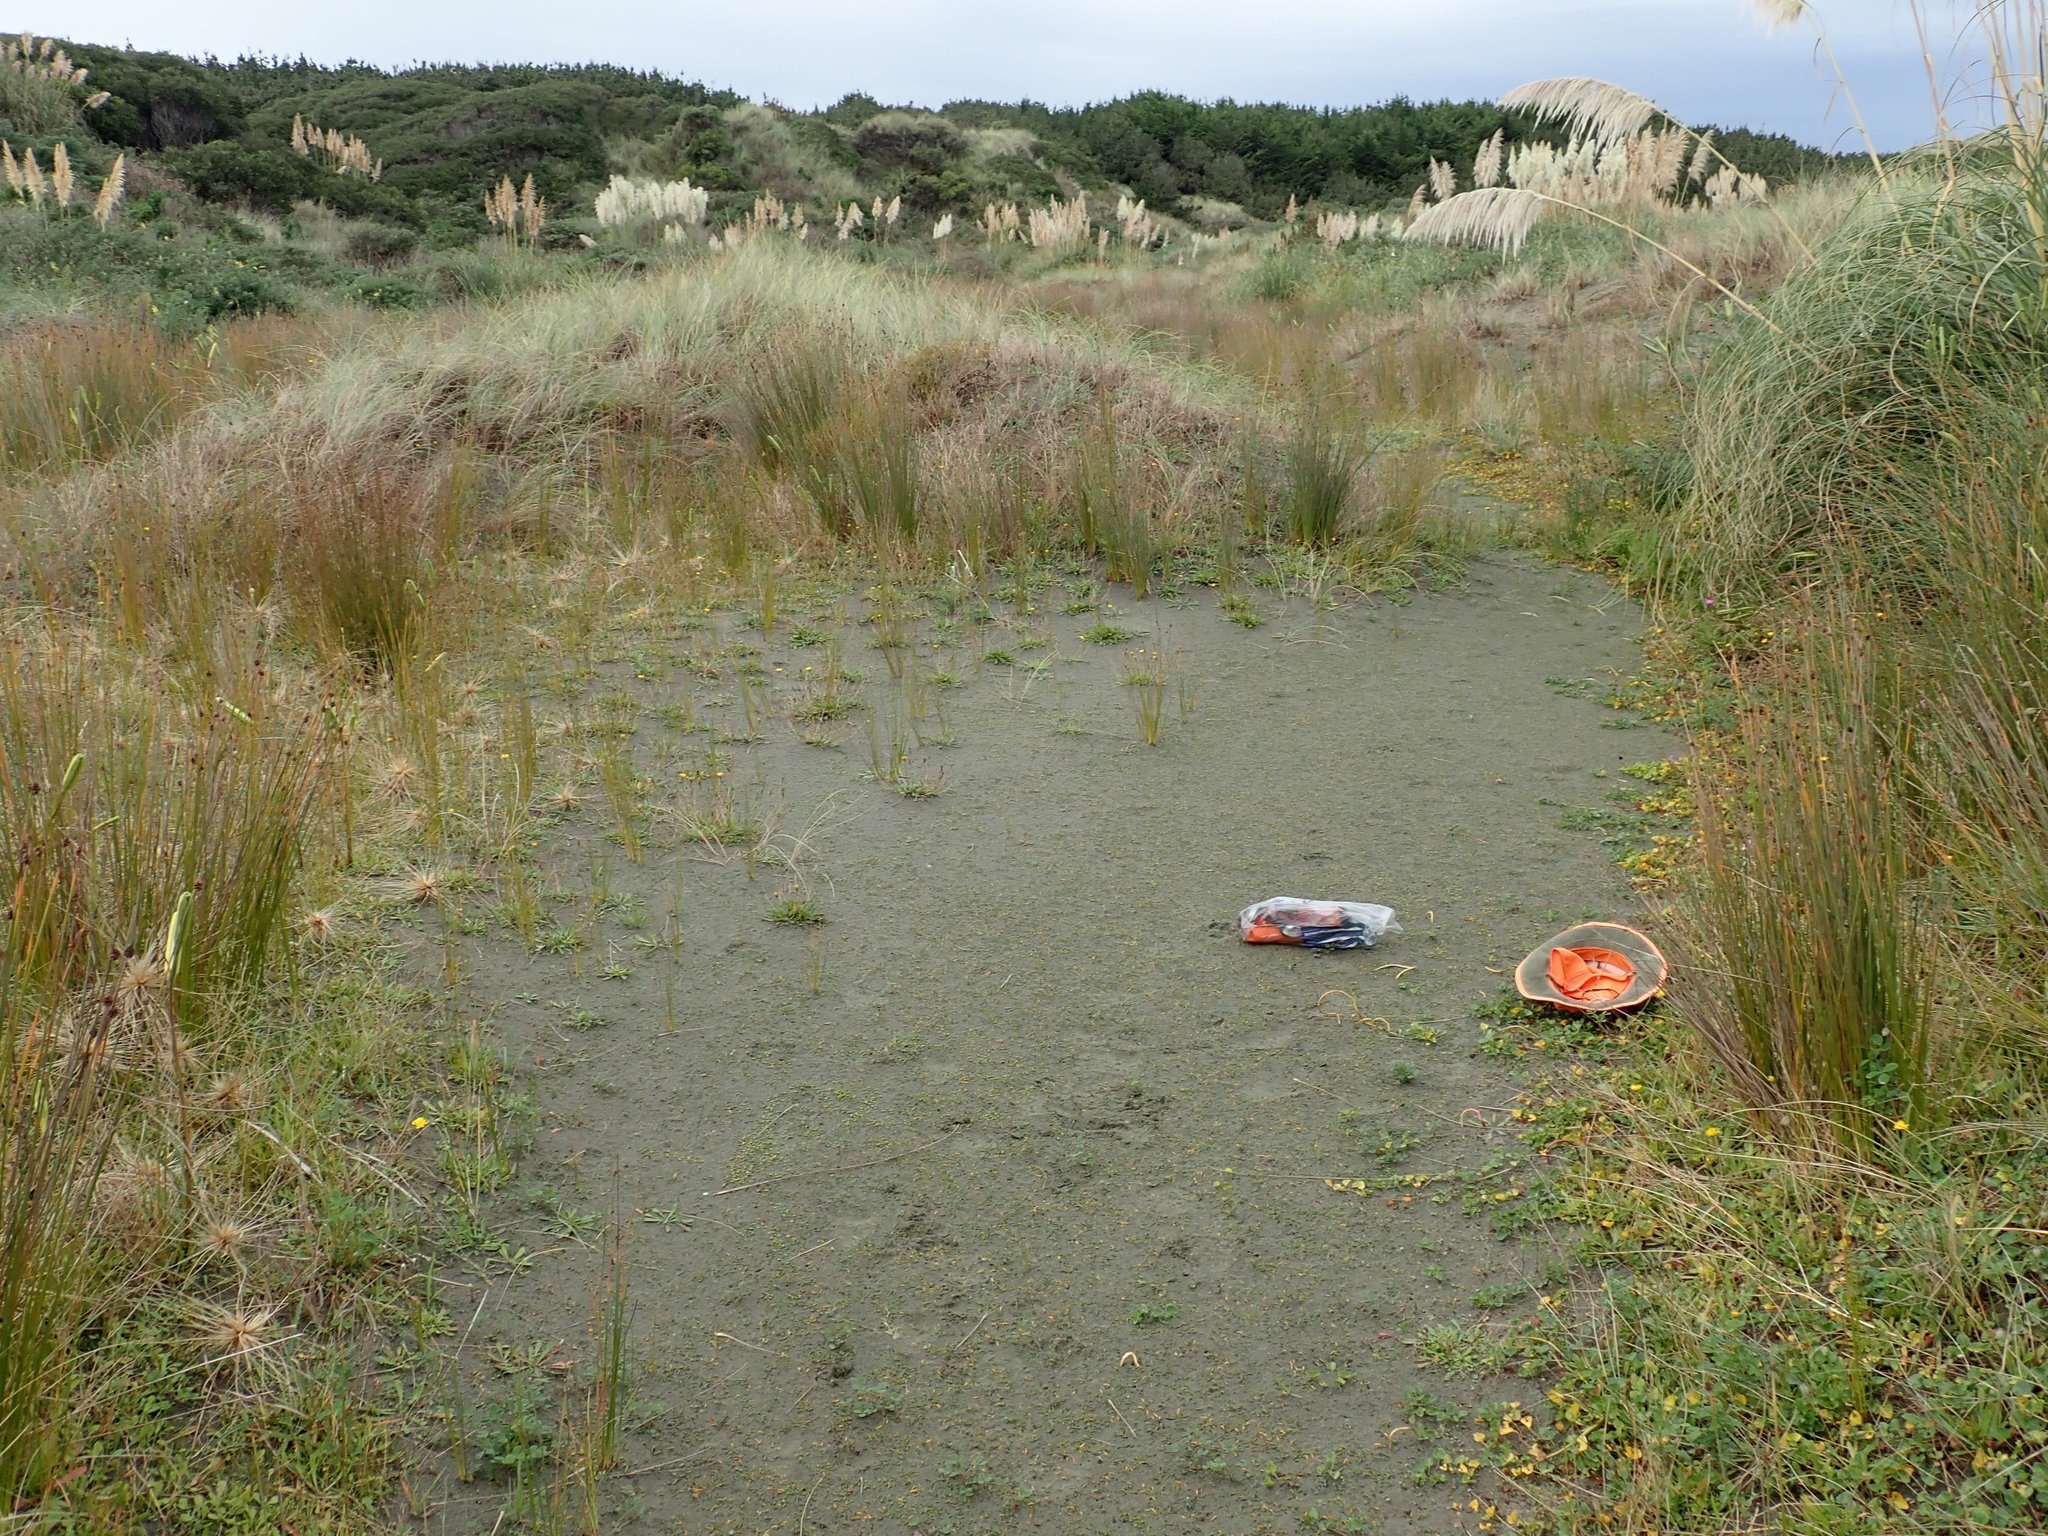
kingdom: Plantae
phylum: Tracheophyta
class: Magnoliopsida
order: Apiales
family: Apiaceae
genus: Lilaeopsis
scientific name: Lilaeopsis novae-zelandiae
